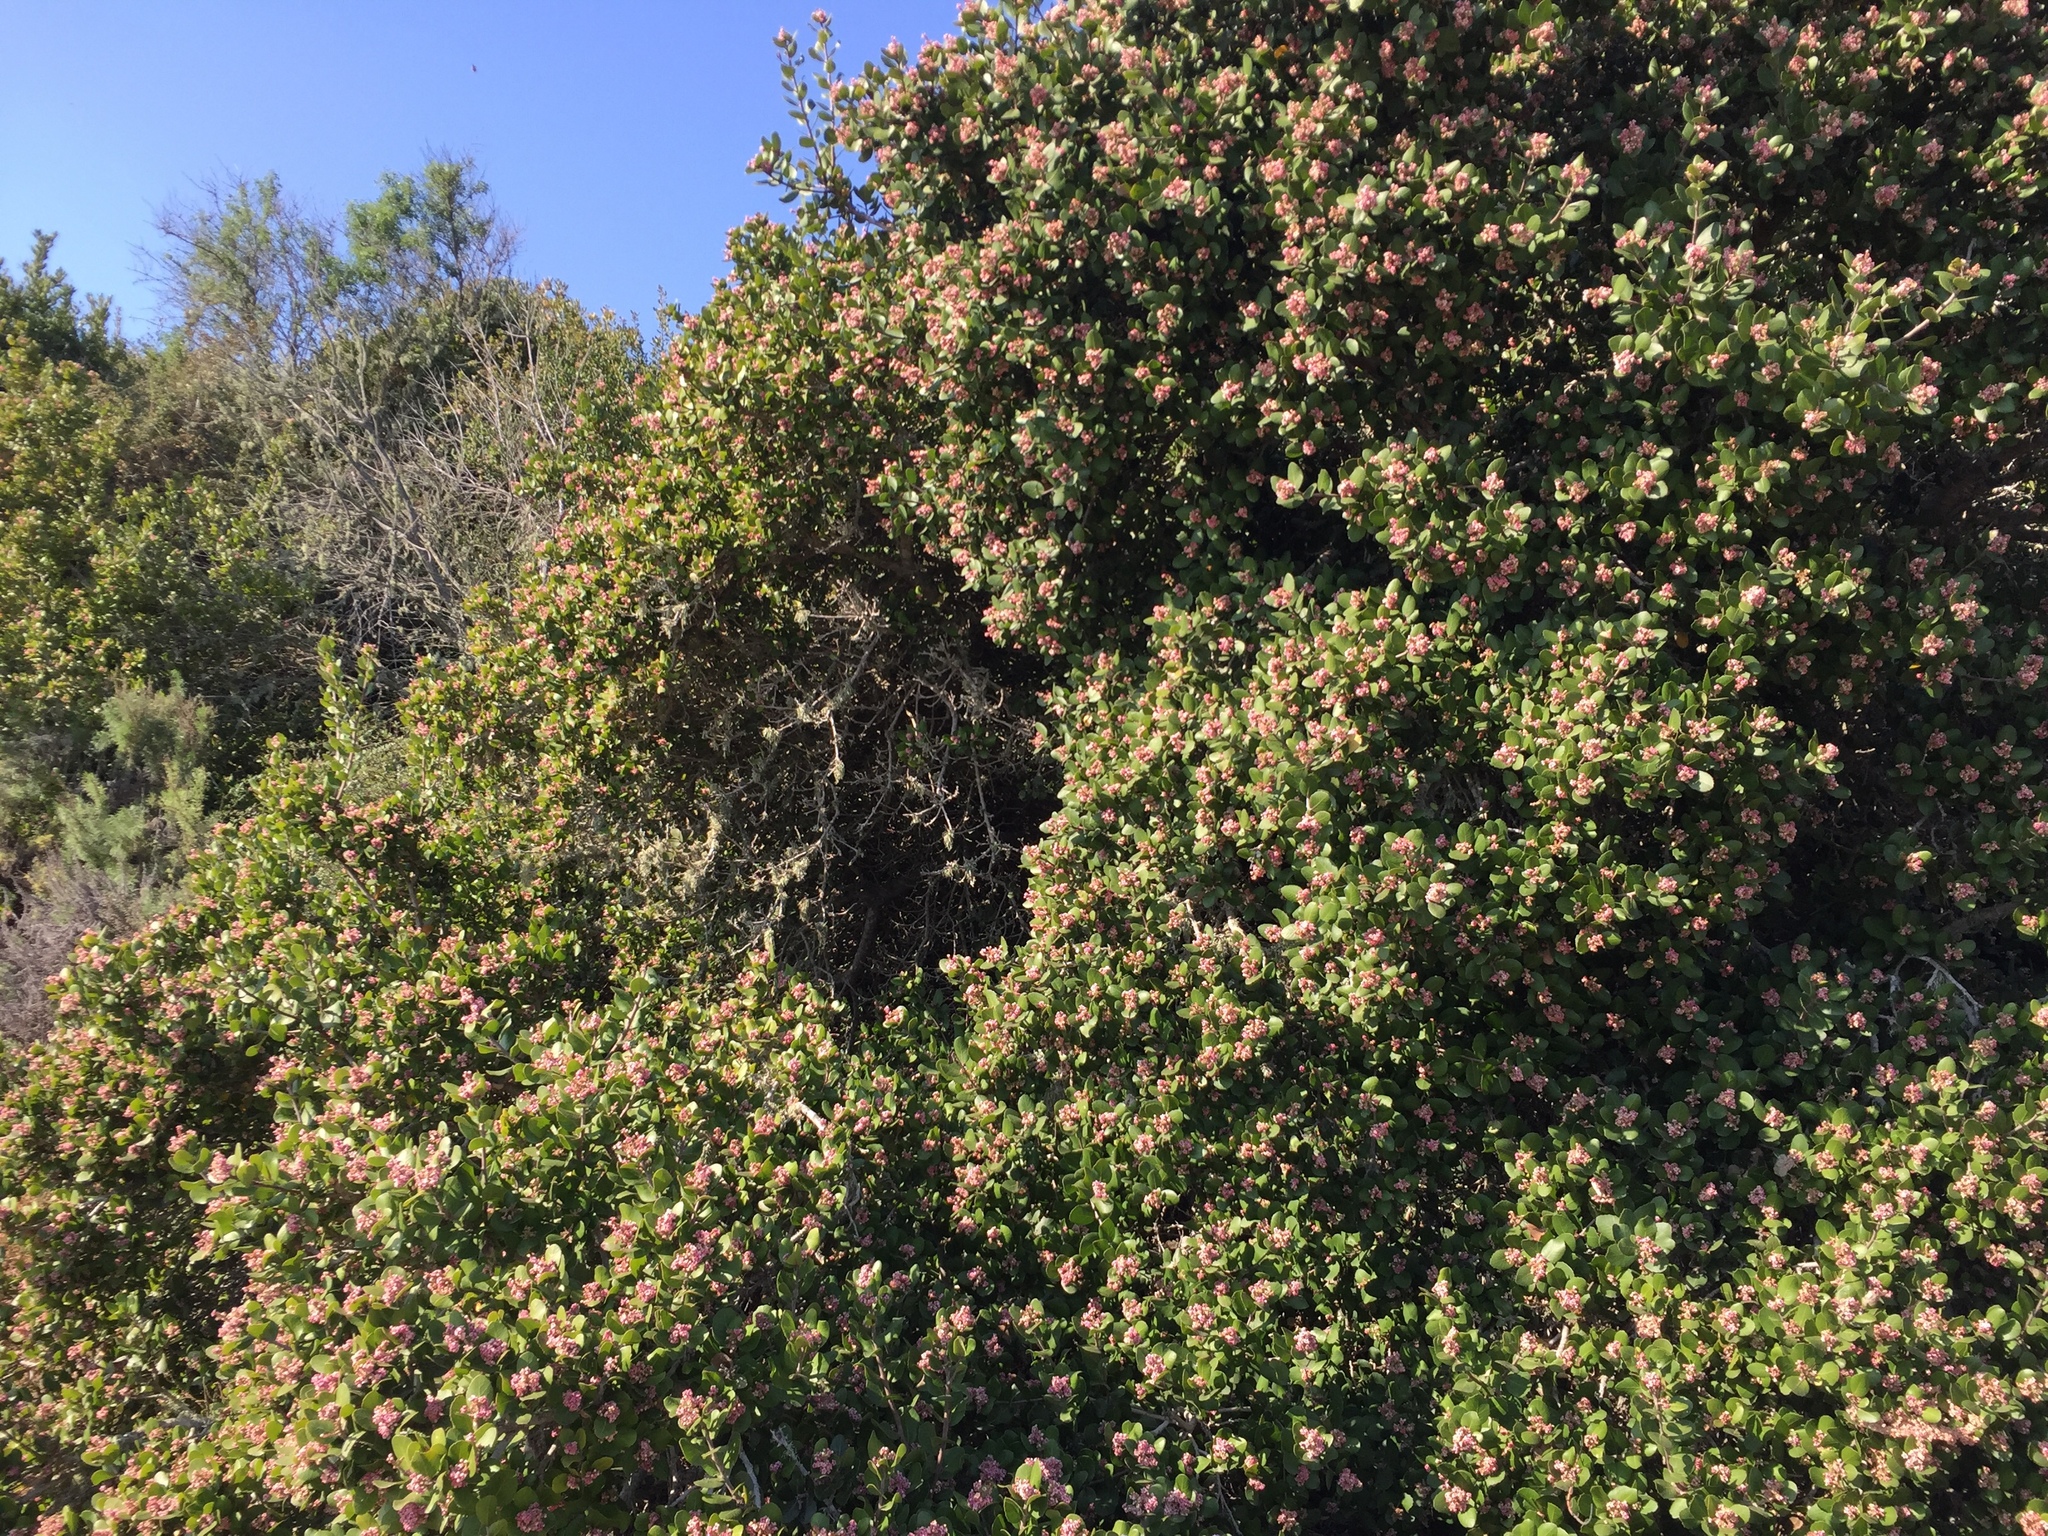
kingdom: Plantae
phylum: Tracheophyta
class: Magnoliopsida
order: Sapindales
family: Anacardiaceae
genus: Rhus
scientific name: Rhus integrifolia
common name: Lemonade sumac
